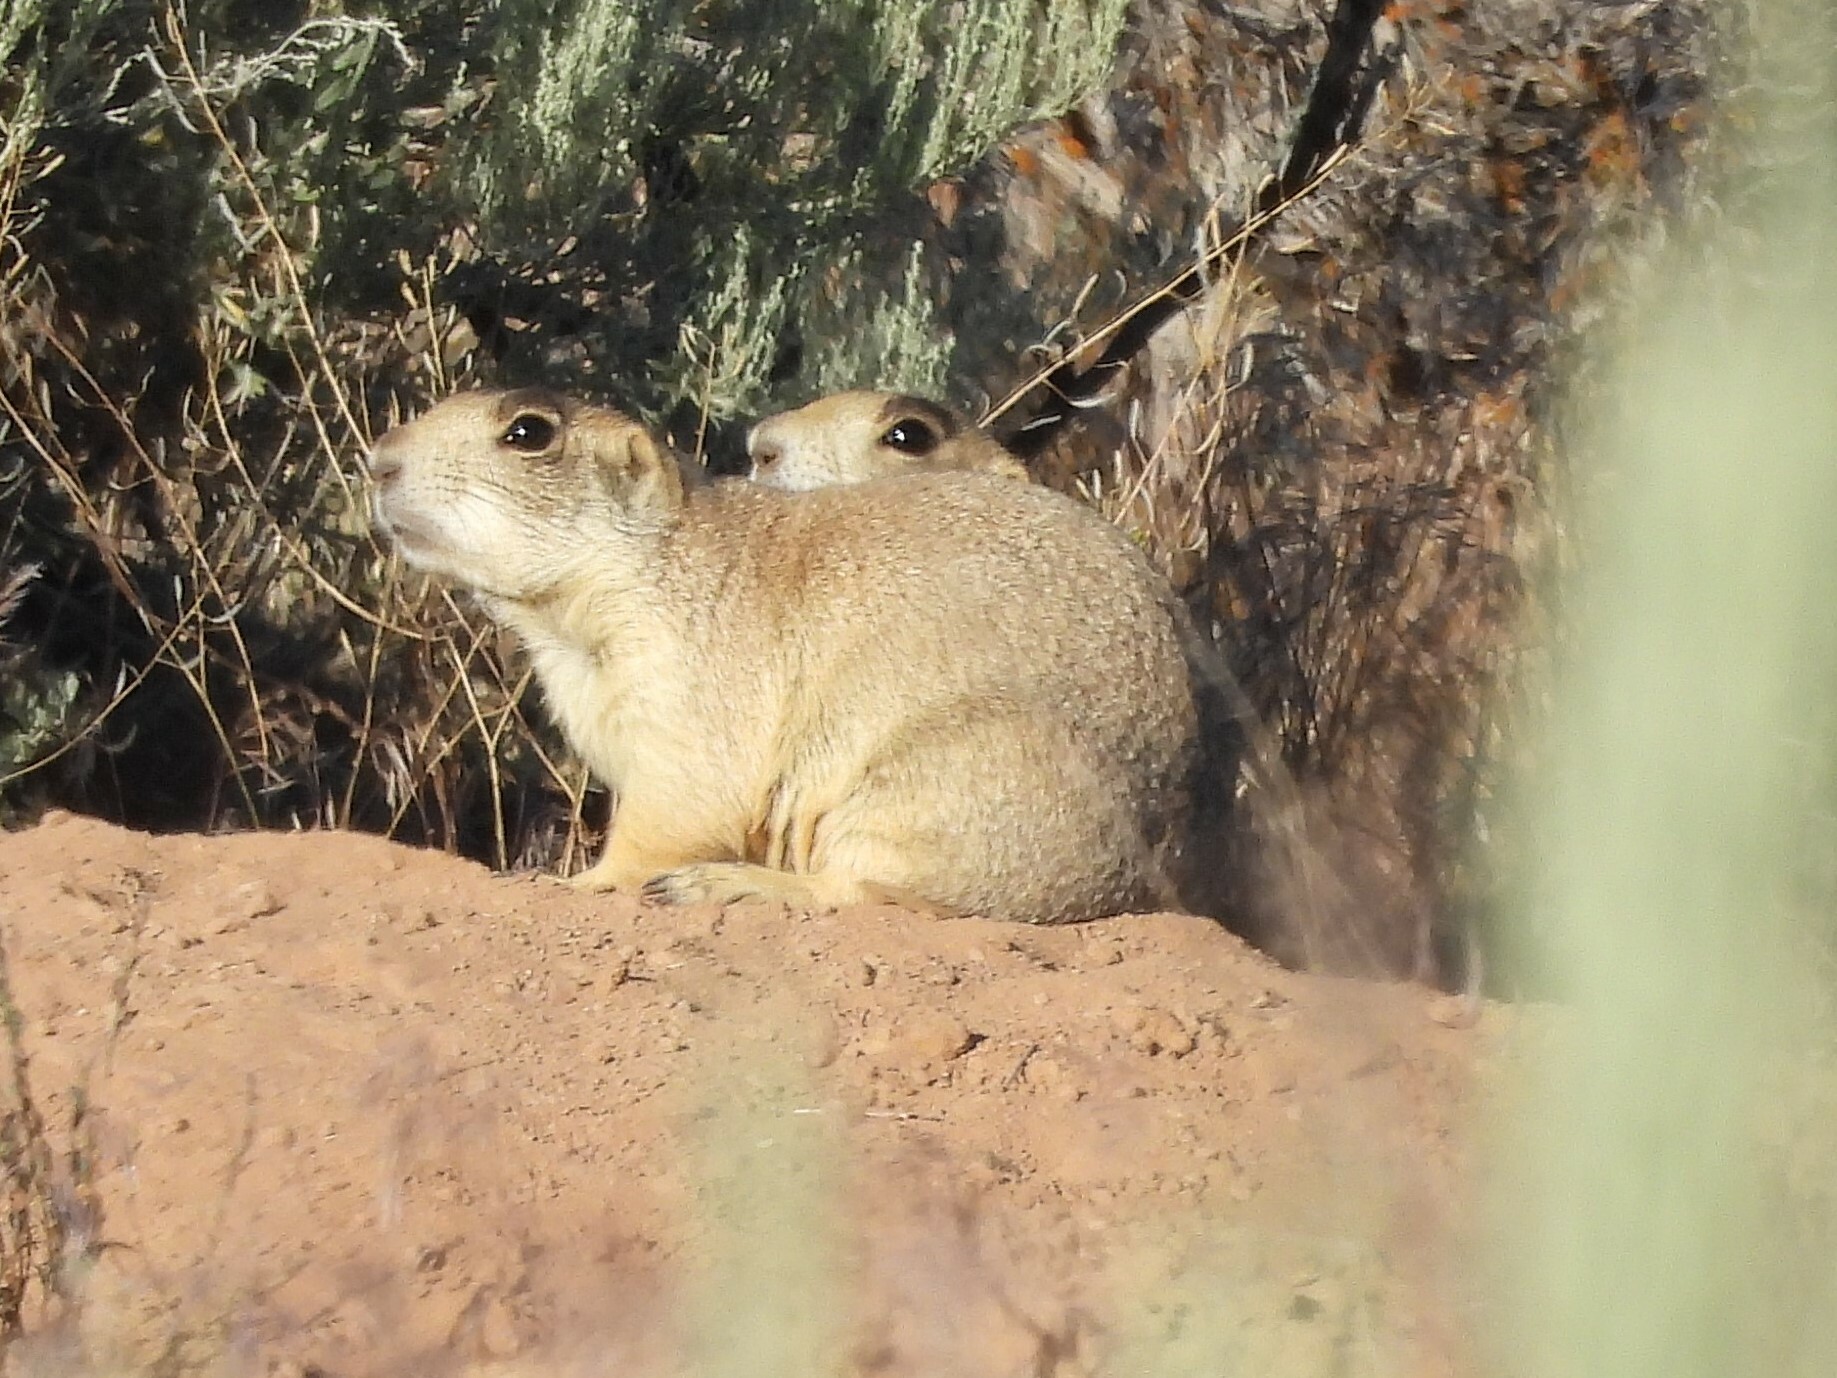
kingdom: Animalia
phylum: Chordata
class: Mammalia
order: Rodentia
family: Sciuridae
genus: Cynomys
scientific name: Cynomys leucurus
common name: White-tailed prairie dog
